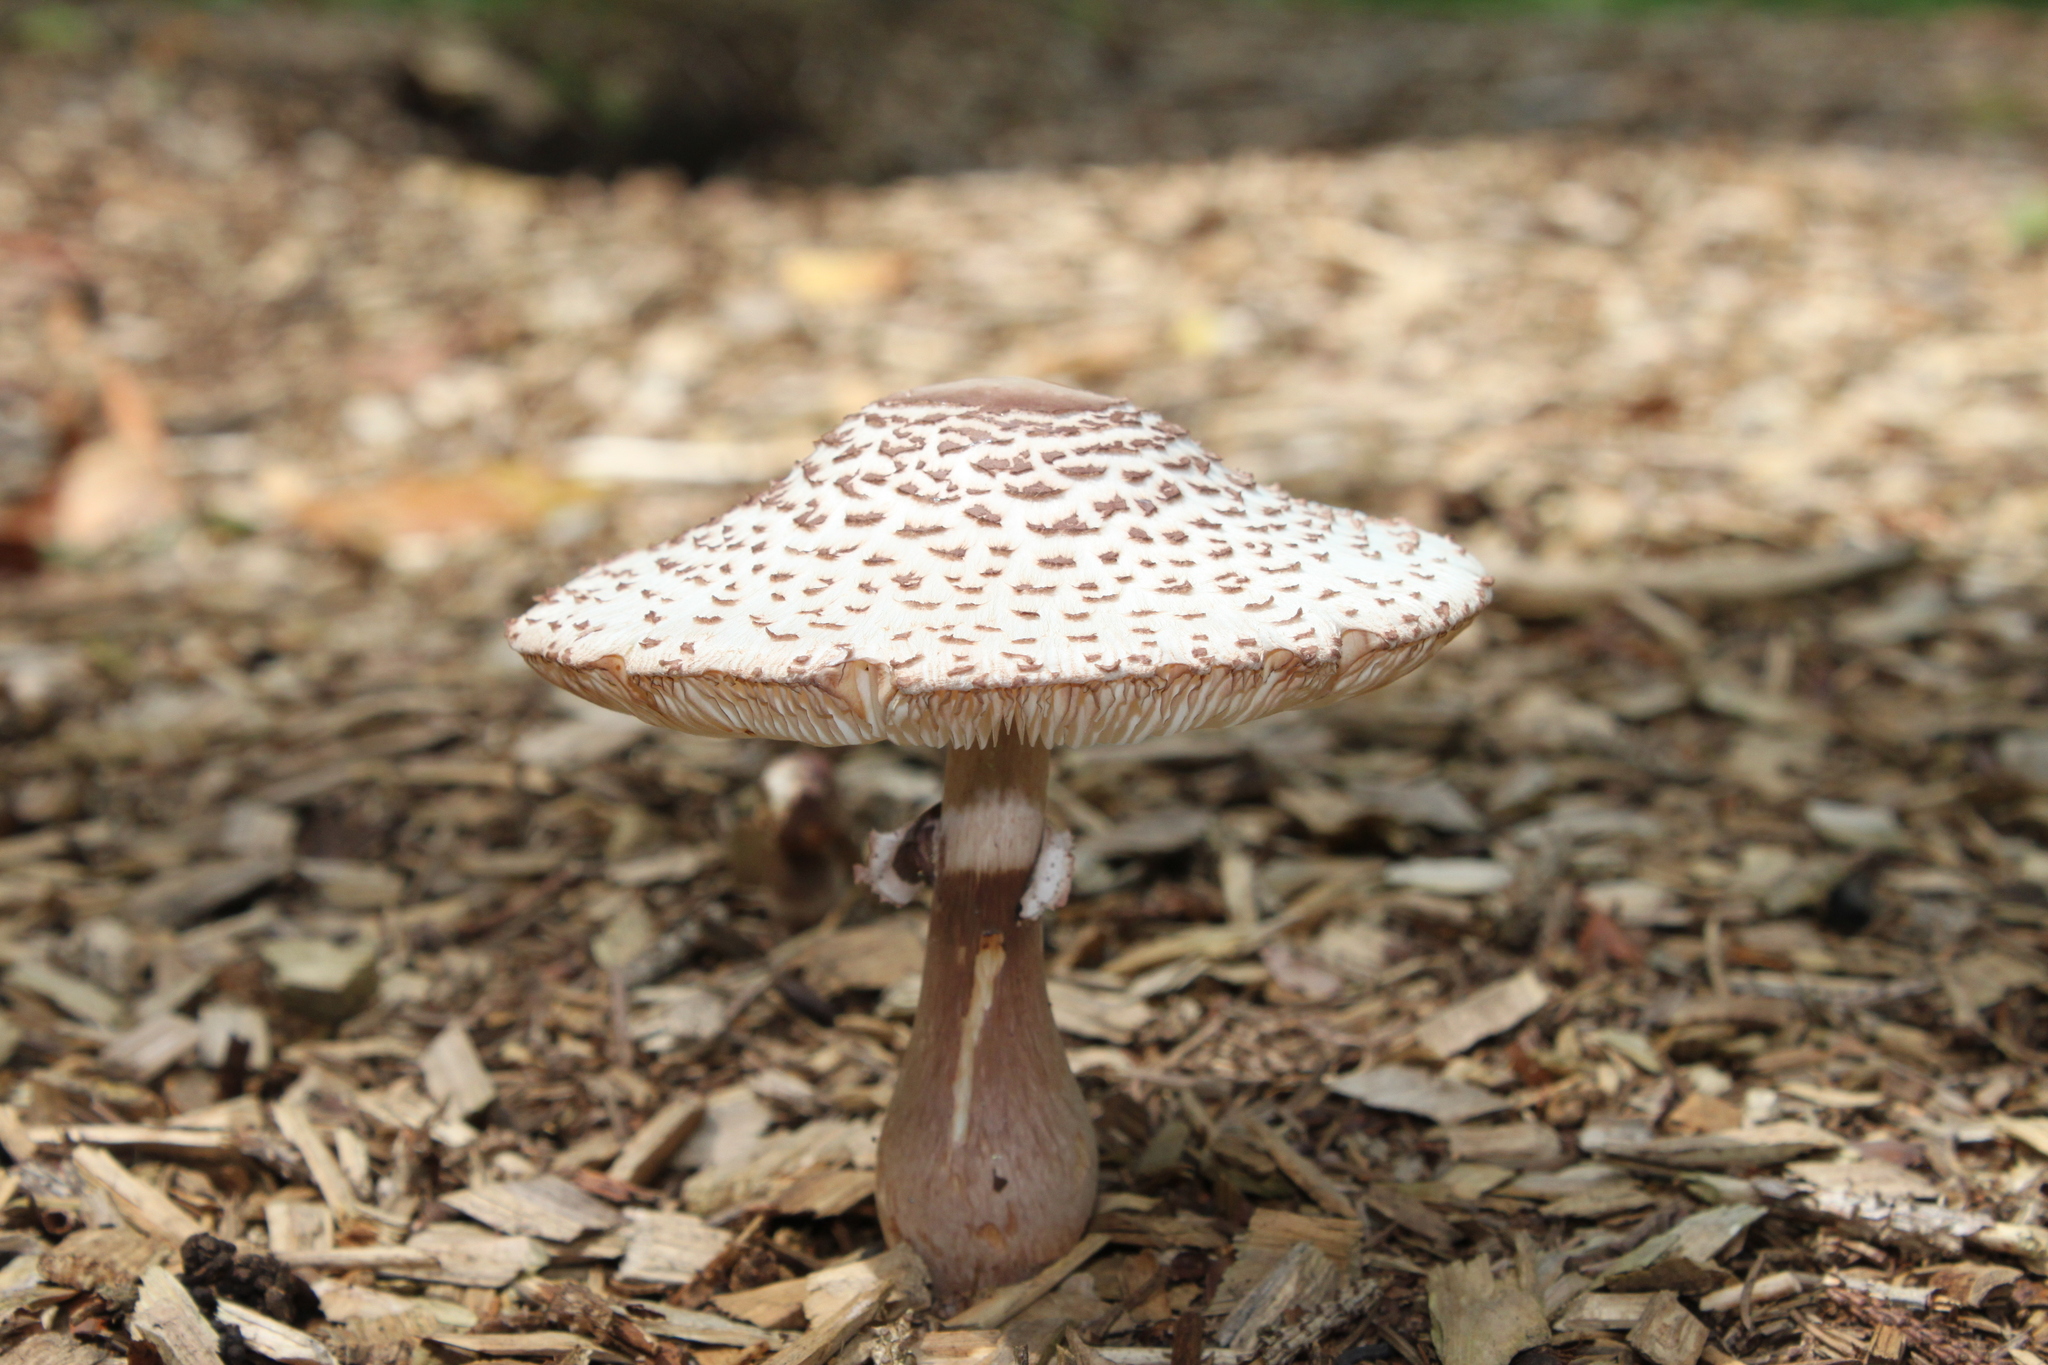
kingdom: Fungi
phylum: Basidiomycota
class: Agaricomycetes
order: Agaricales
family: Agaricaceae
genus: Leucoagaricus
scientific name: Leucoagaricus americanus
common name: Reddening lepiota
